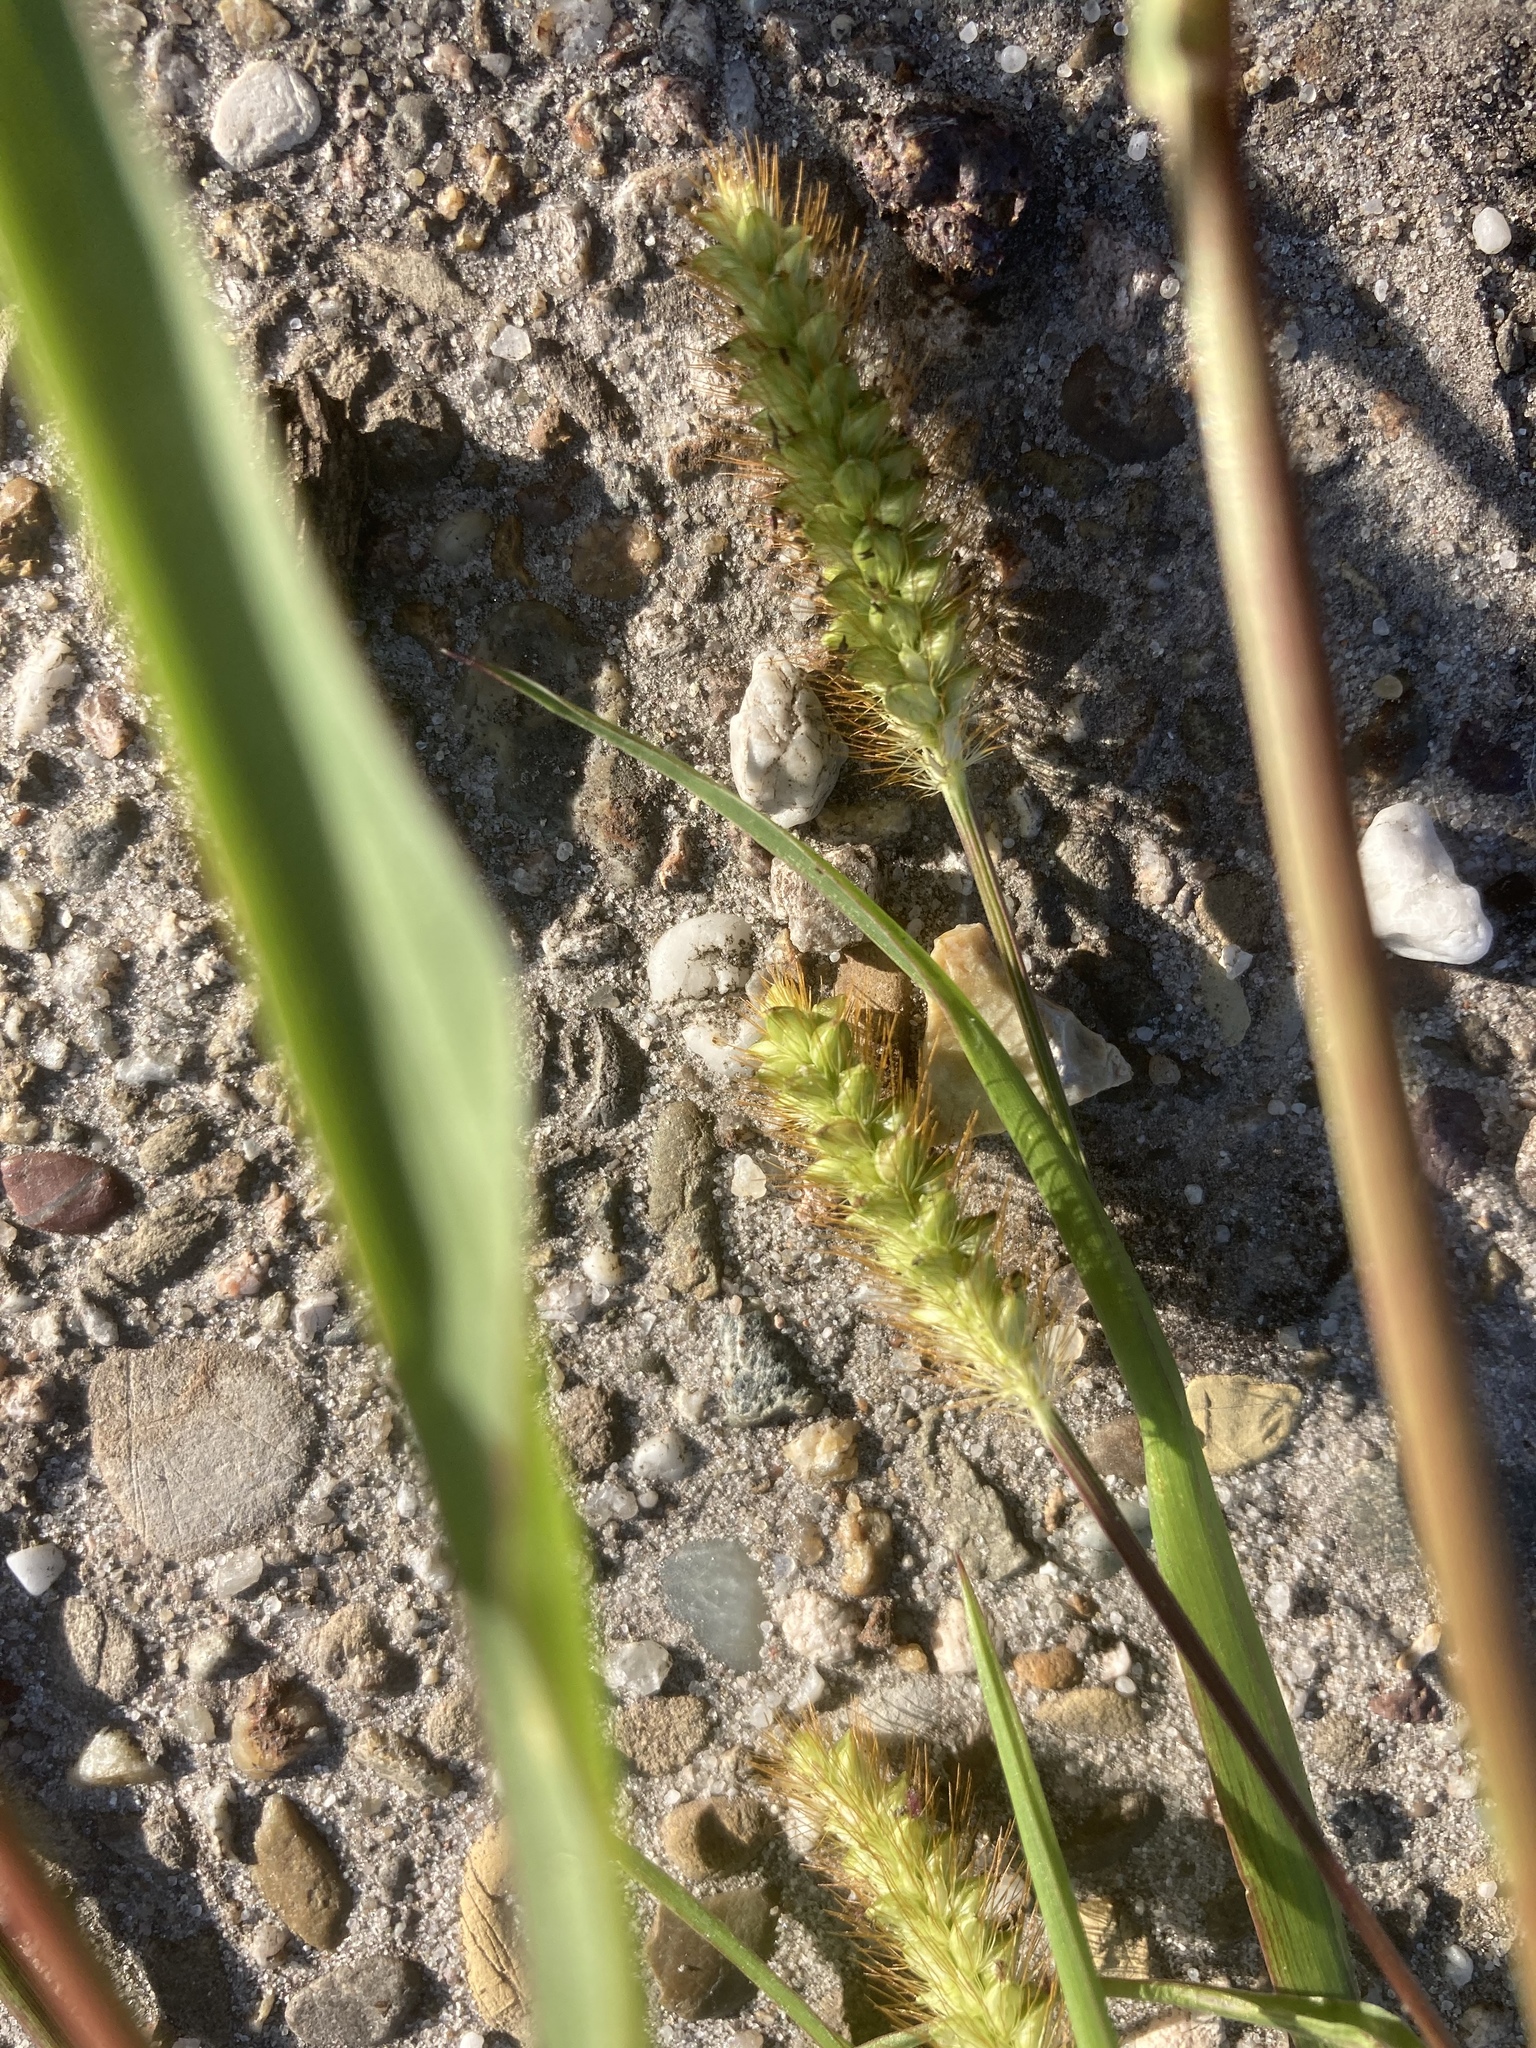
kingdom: Plantae
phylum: Tracheophyta
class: Liliopsida
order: Poales
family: Poaceae
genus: Setaria
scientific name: Setaria pumila
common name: Yellow bristle-grass
